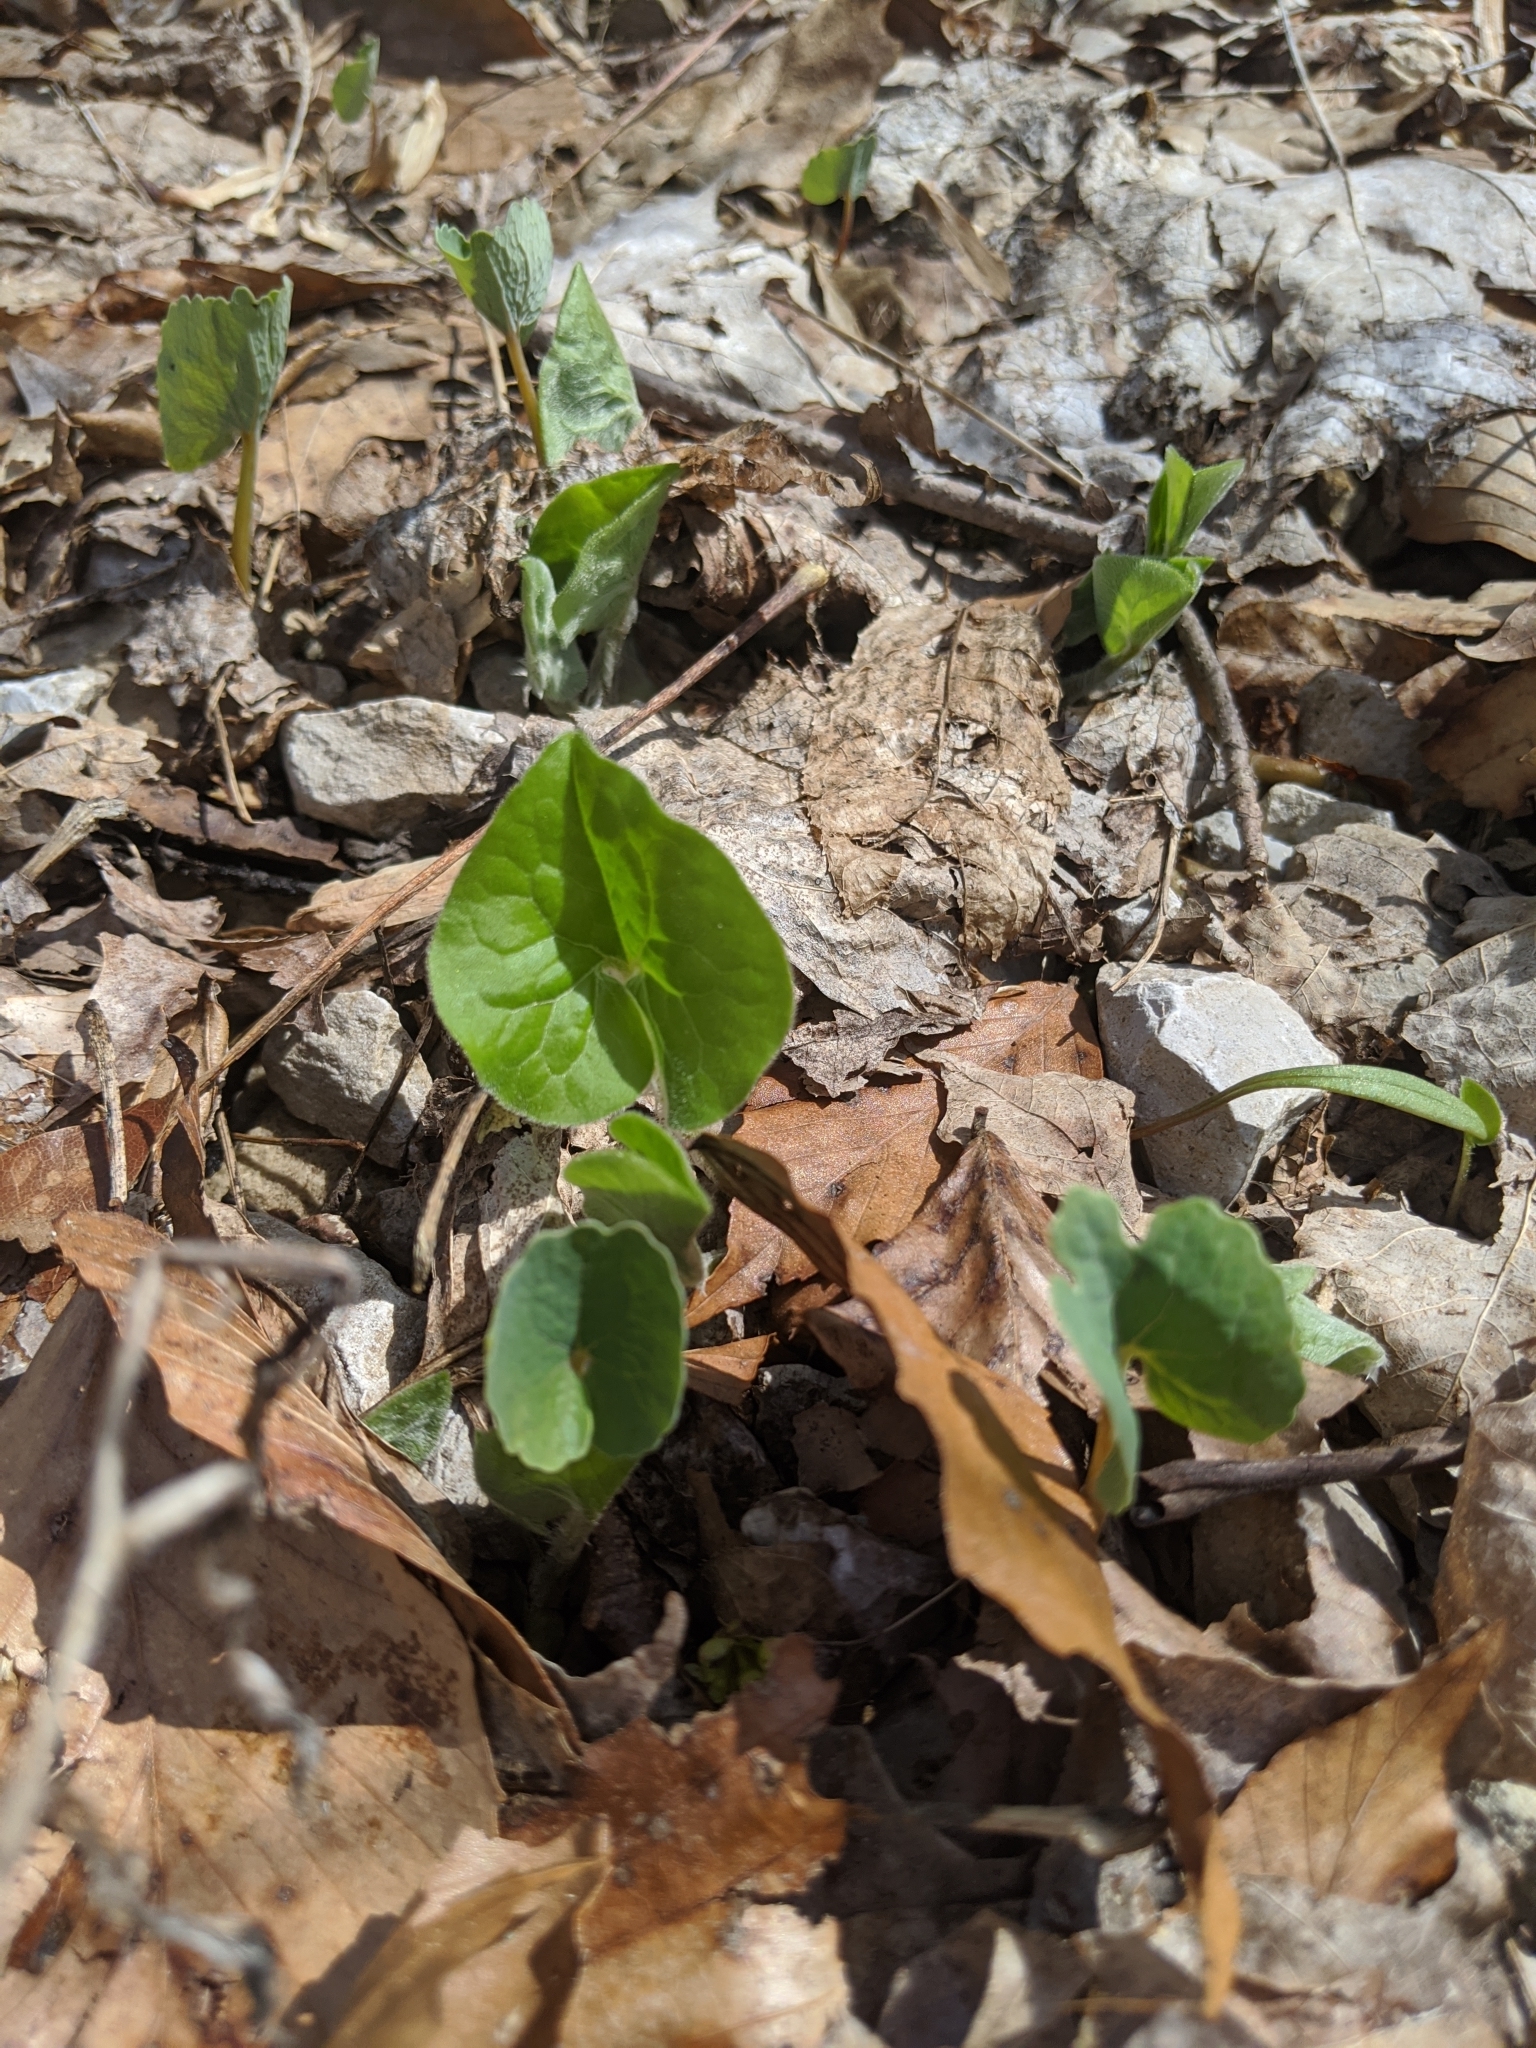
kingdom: Plantae
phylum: Tracheophyta
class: Magnoliopsida
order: Piperales
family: Aristolochiaceae
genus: Asarum
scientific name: Asarum canadense
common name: Wild ginger
